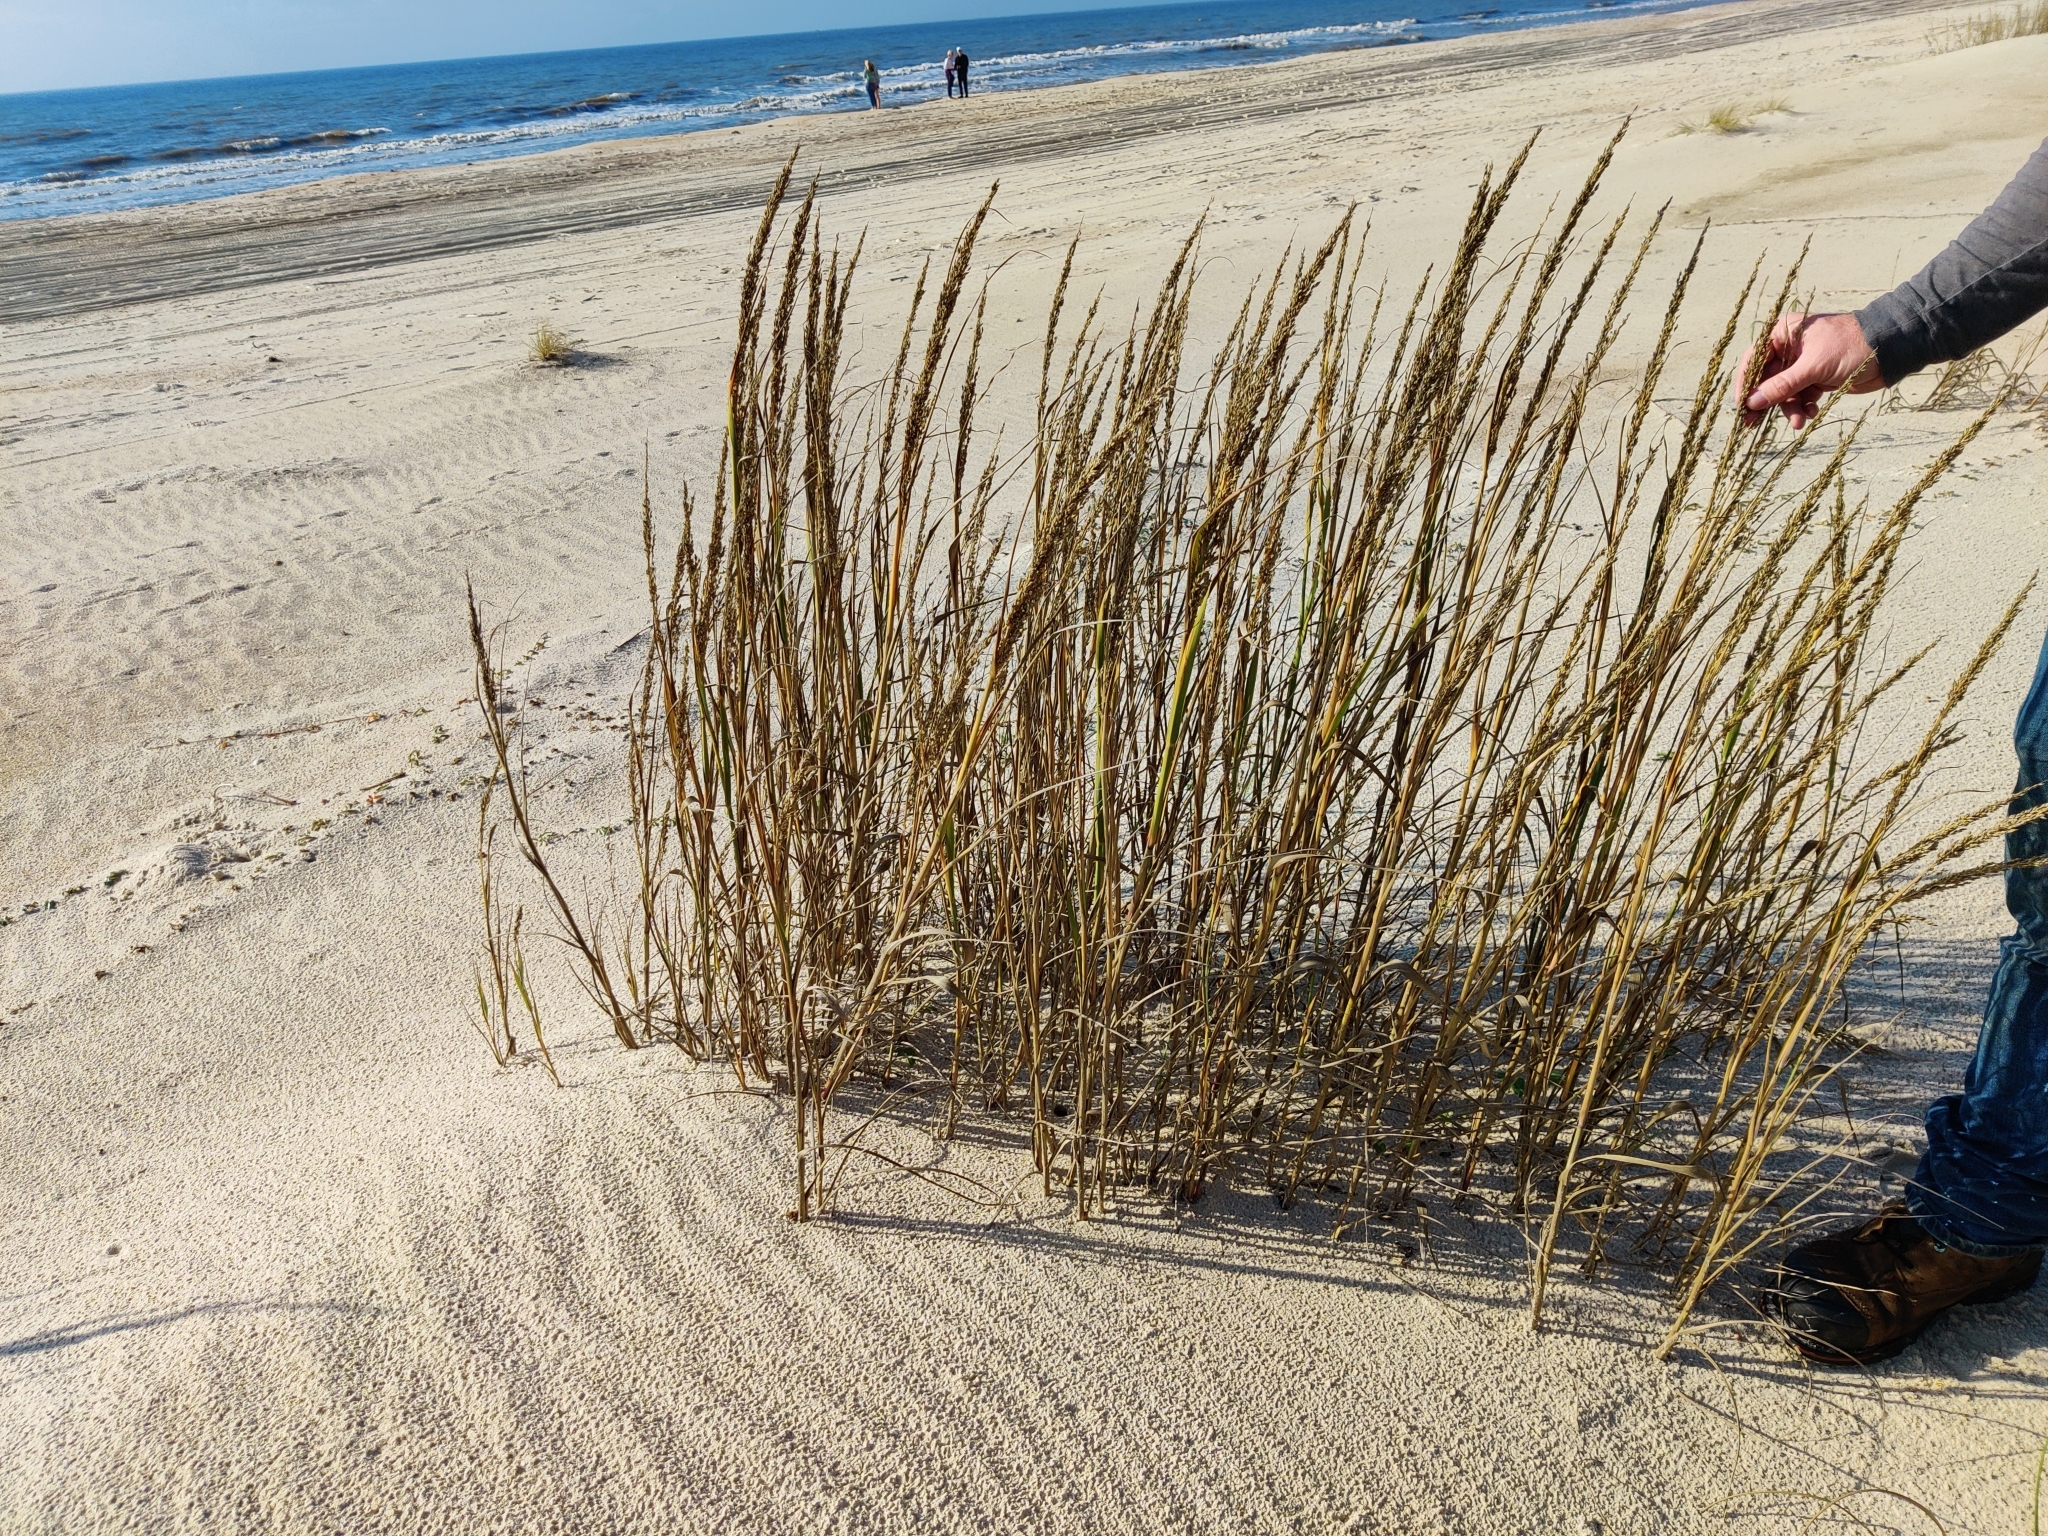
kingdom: Plantae
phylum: Tracheophyta
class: Liliopsida
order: Poales
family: Poaceae
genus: Panicum
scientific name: Panicum amarum
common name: Bitter panicum
